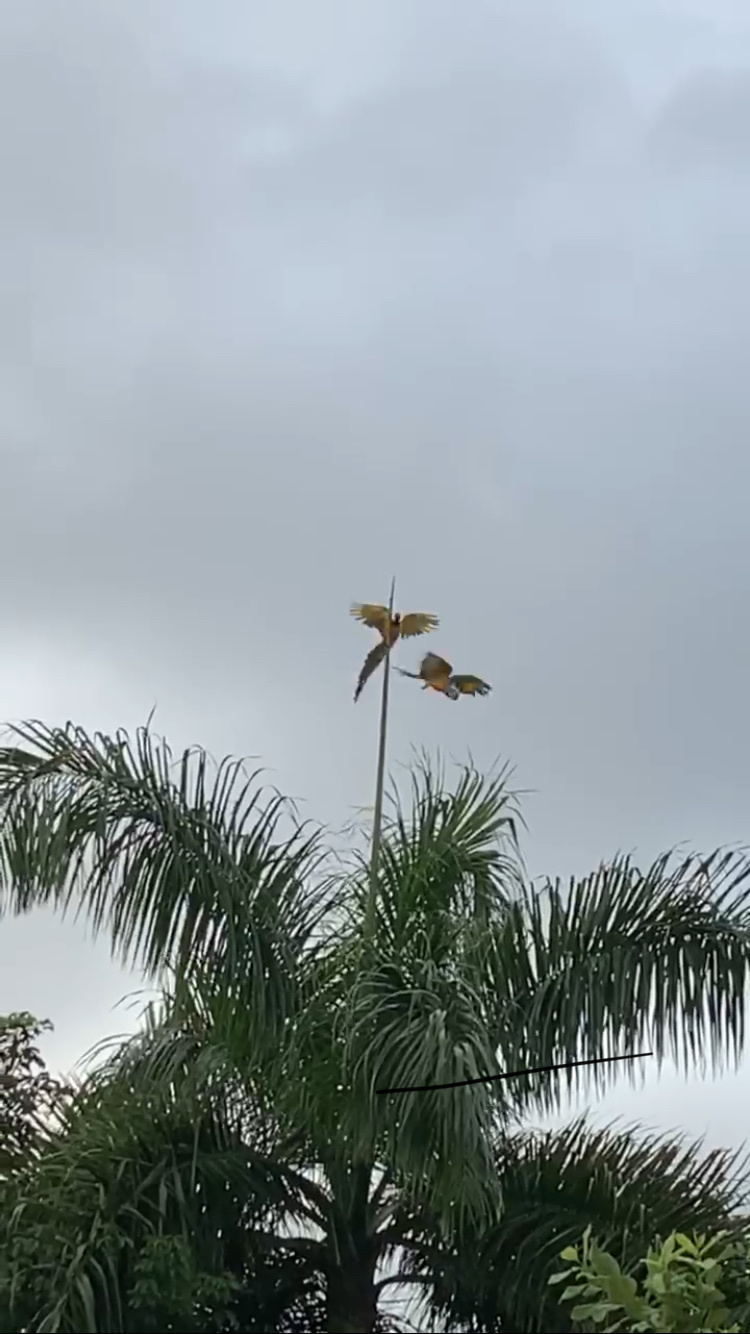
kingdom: Animalia
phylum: Chordata
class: Aves
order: Psittaciformes
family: Psittacidae
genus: Ara
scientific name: Ara ararauna
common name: Blue-and-yellow macaw
